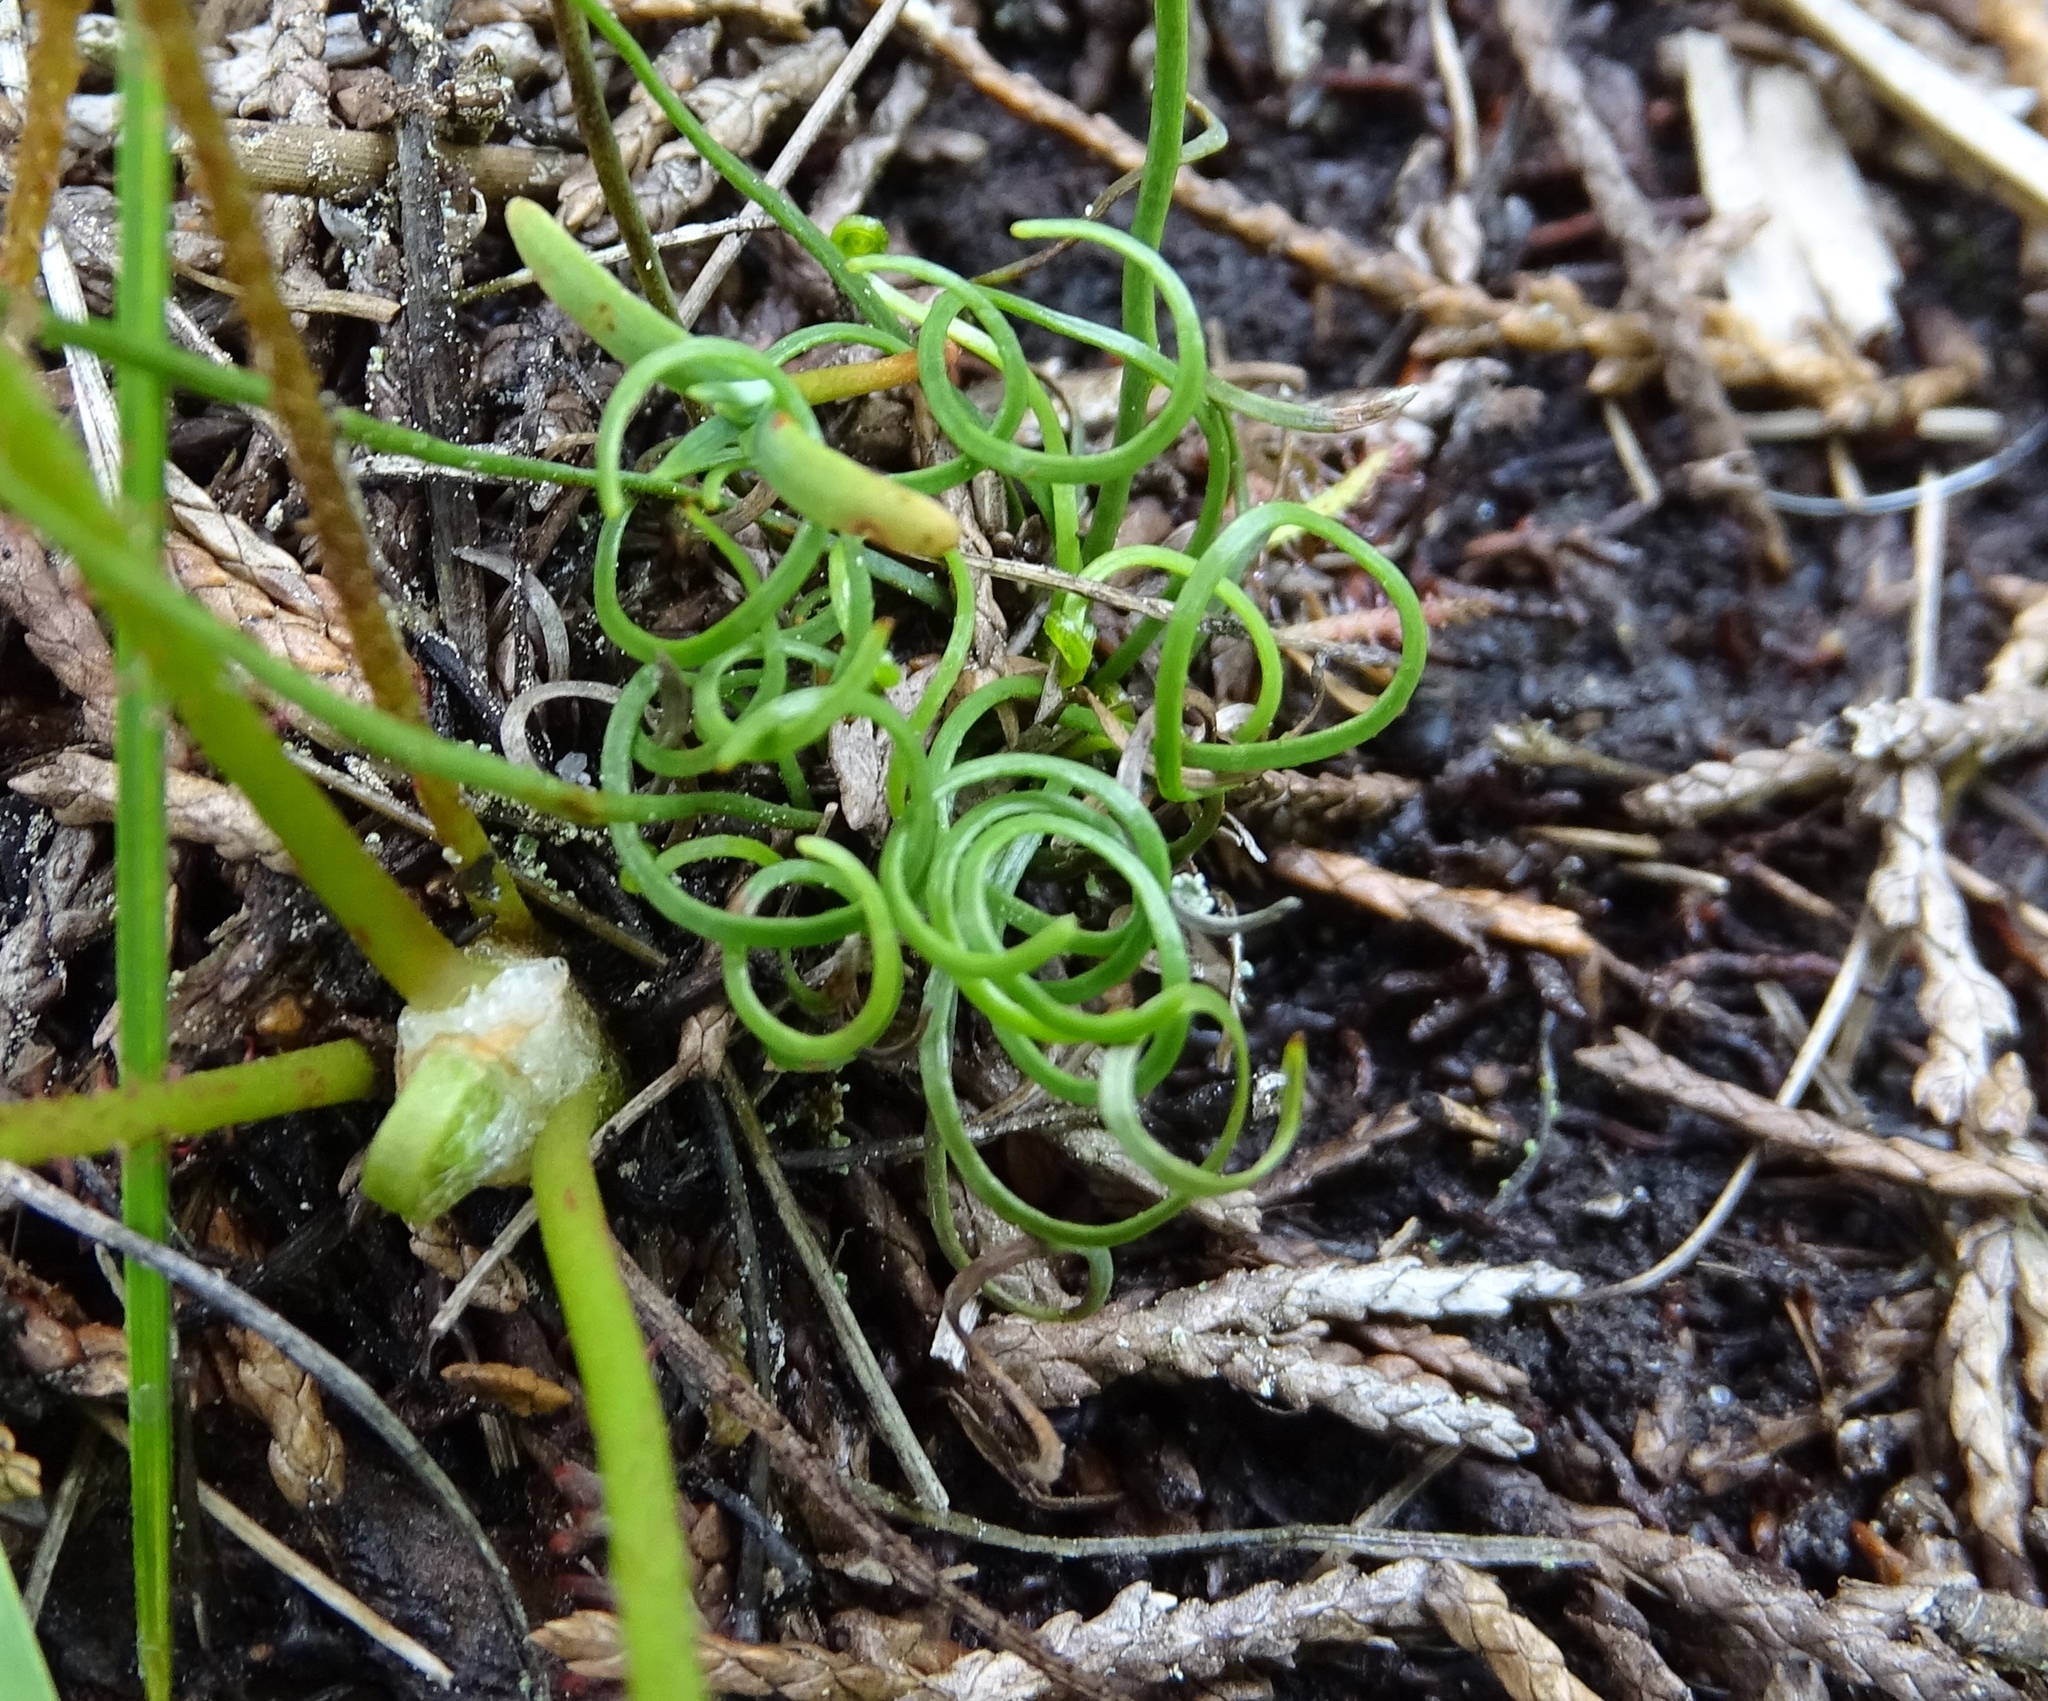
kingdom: Plantae
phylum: Tracheophyta
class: Polypodiopsida
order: Schizaeales
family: Schizaeaceae
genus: Schizaea
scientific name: Schizaea pusilla
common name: Curly-grass fern
